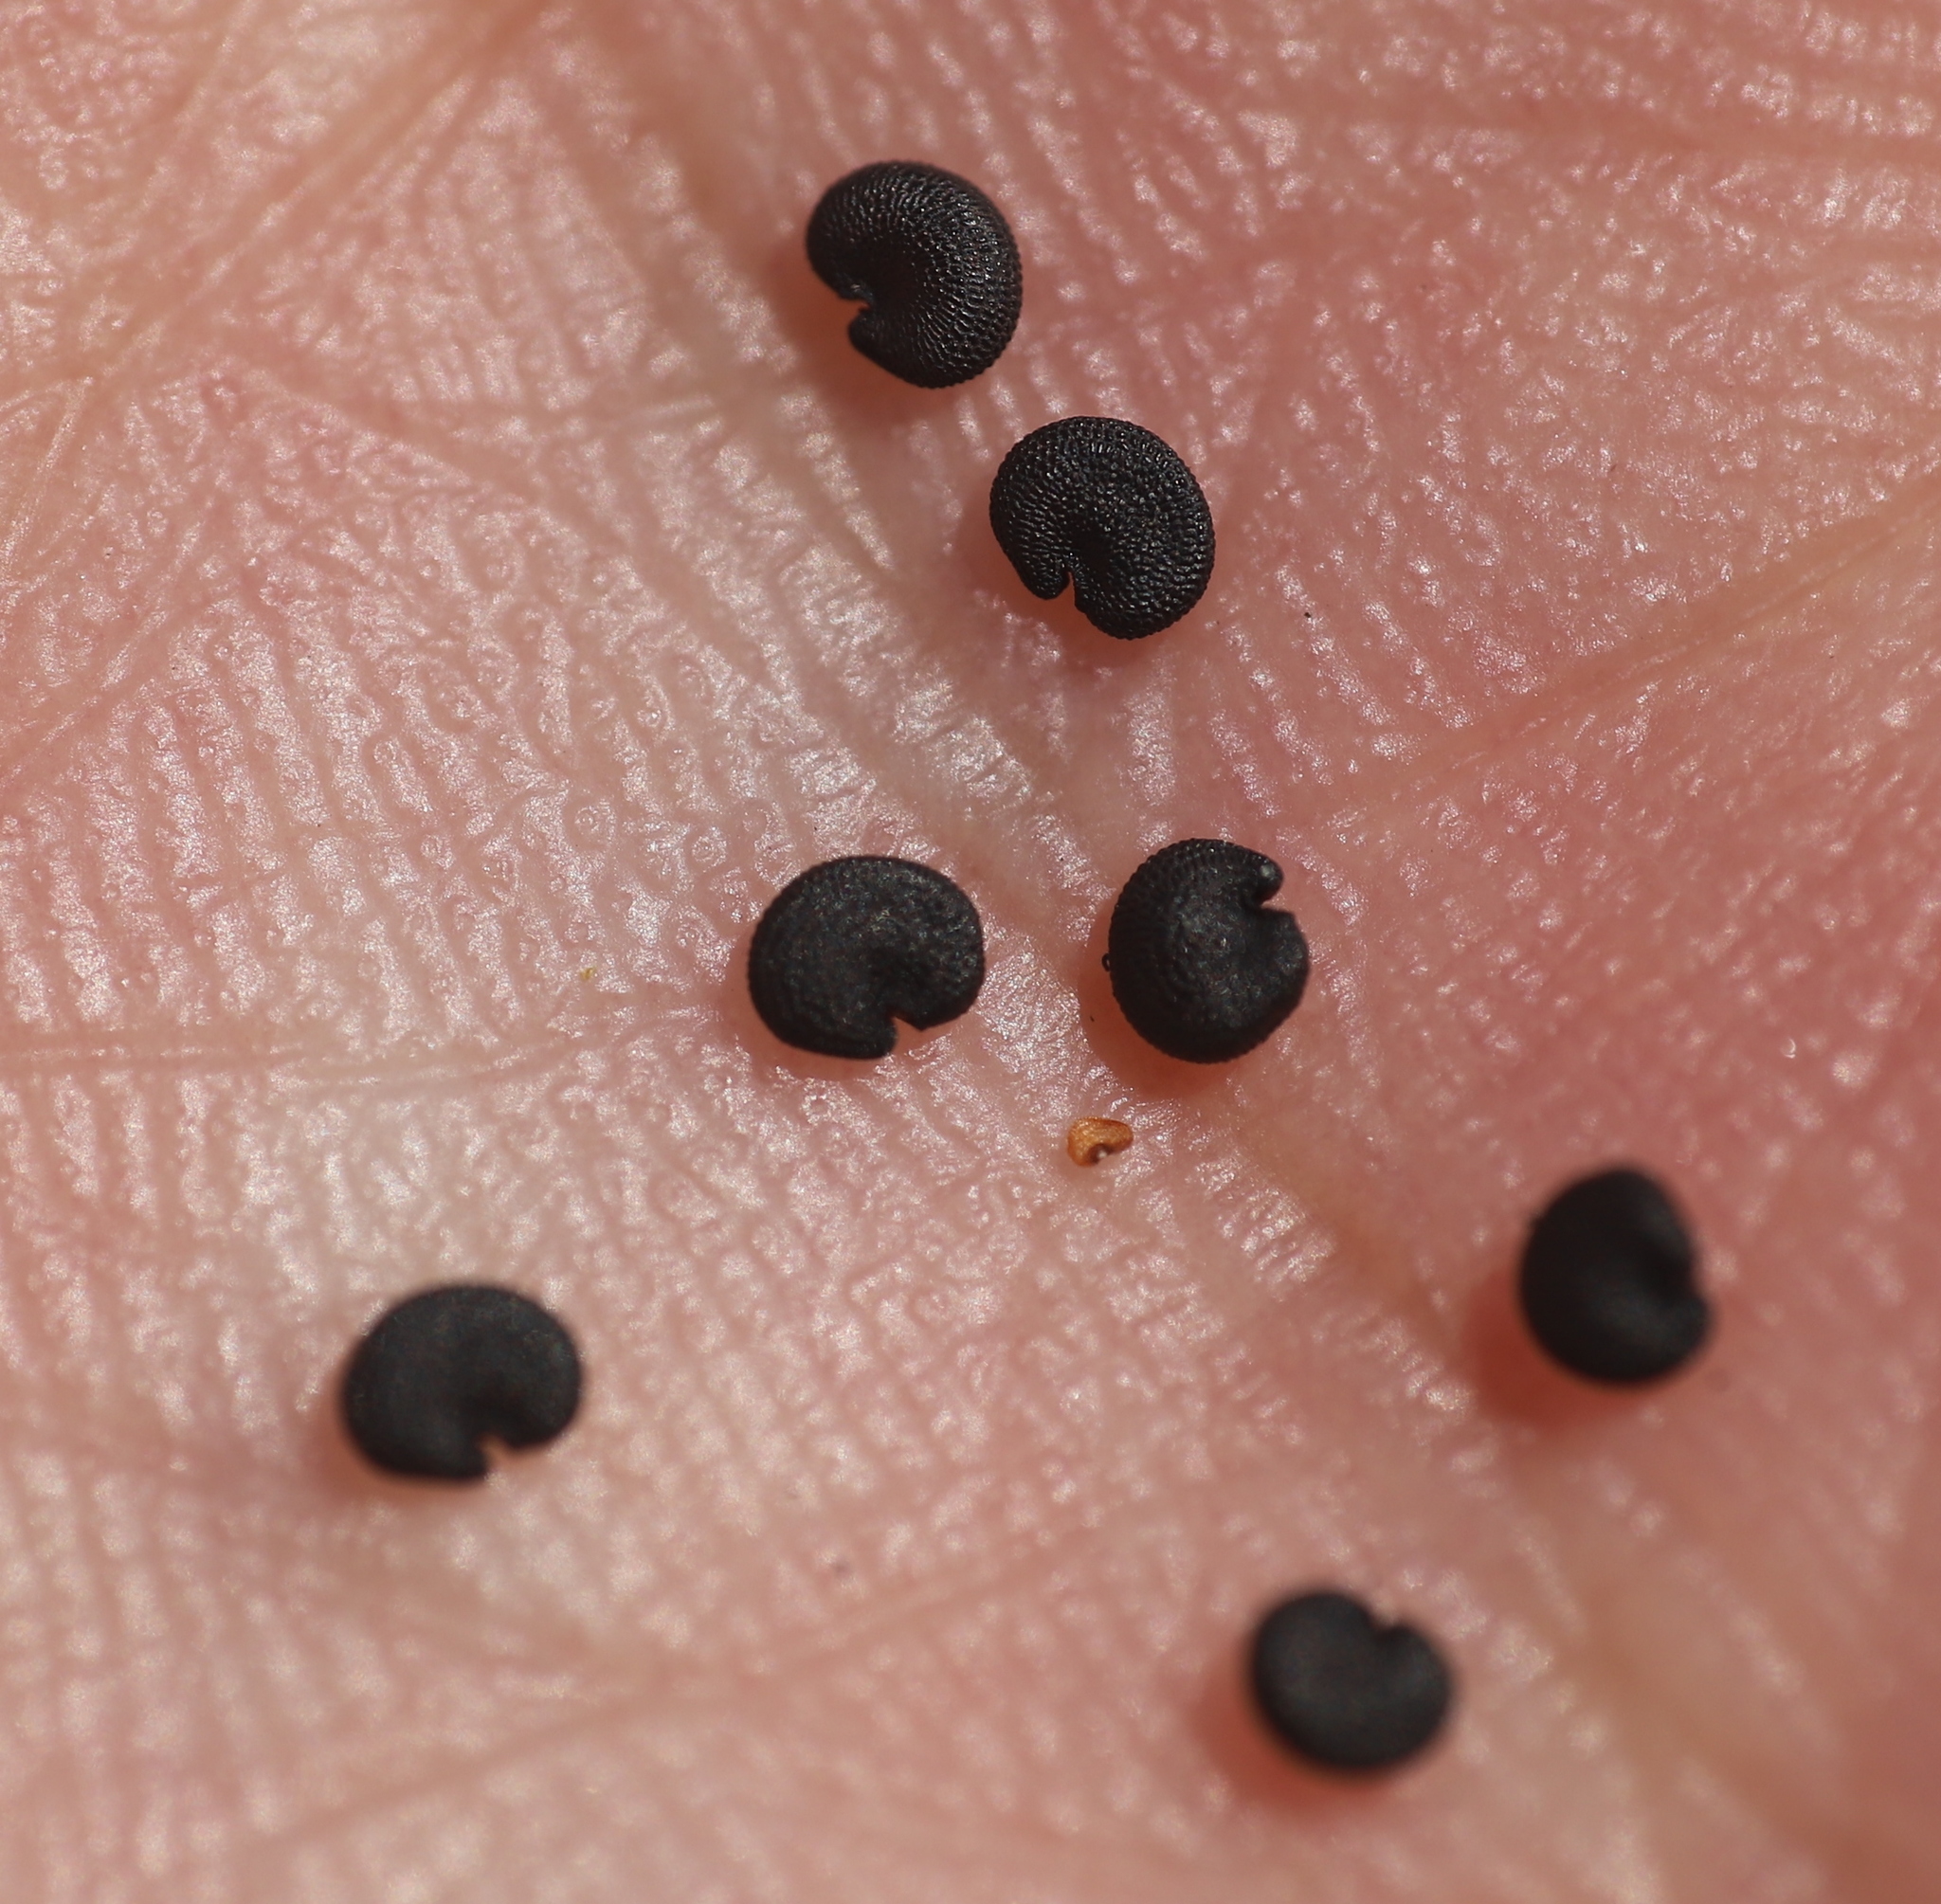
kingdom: Plantae
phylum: Tracheophyta
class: Magnoliopsida
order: Caryophyllales
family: Caryophyllaceae
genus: Saponaria
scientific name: Saponaria officinalis
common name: Soapwort
